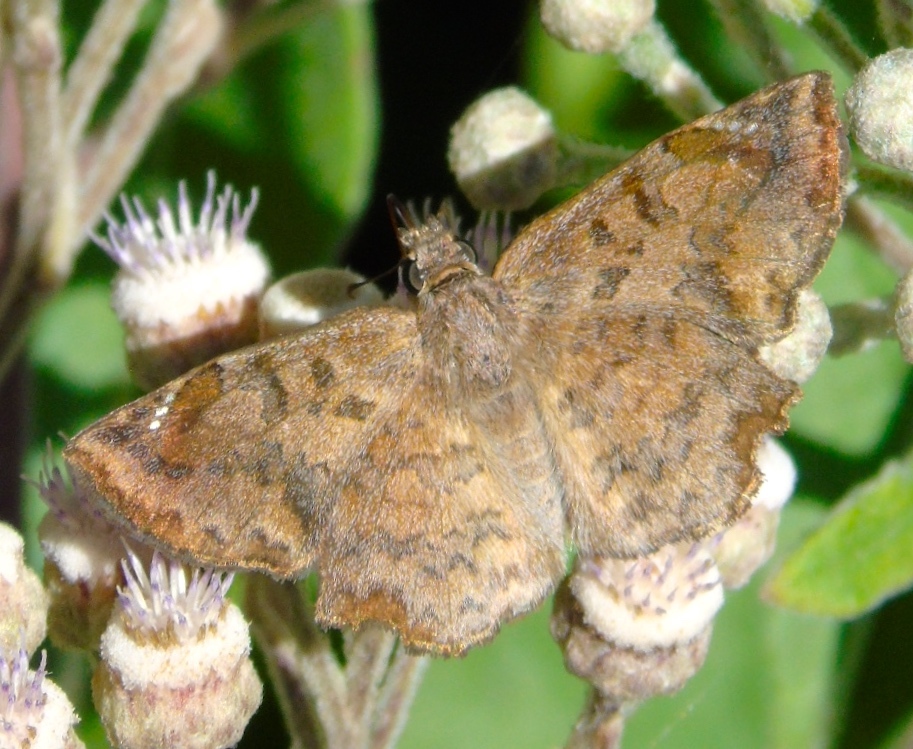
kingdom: Animalia
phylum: Arthropoda
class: Insecta
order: Lepidoptera
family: Hesperiidae
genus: Antigonus
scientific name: Antigonus erosus
